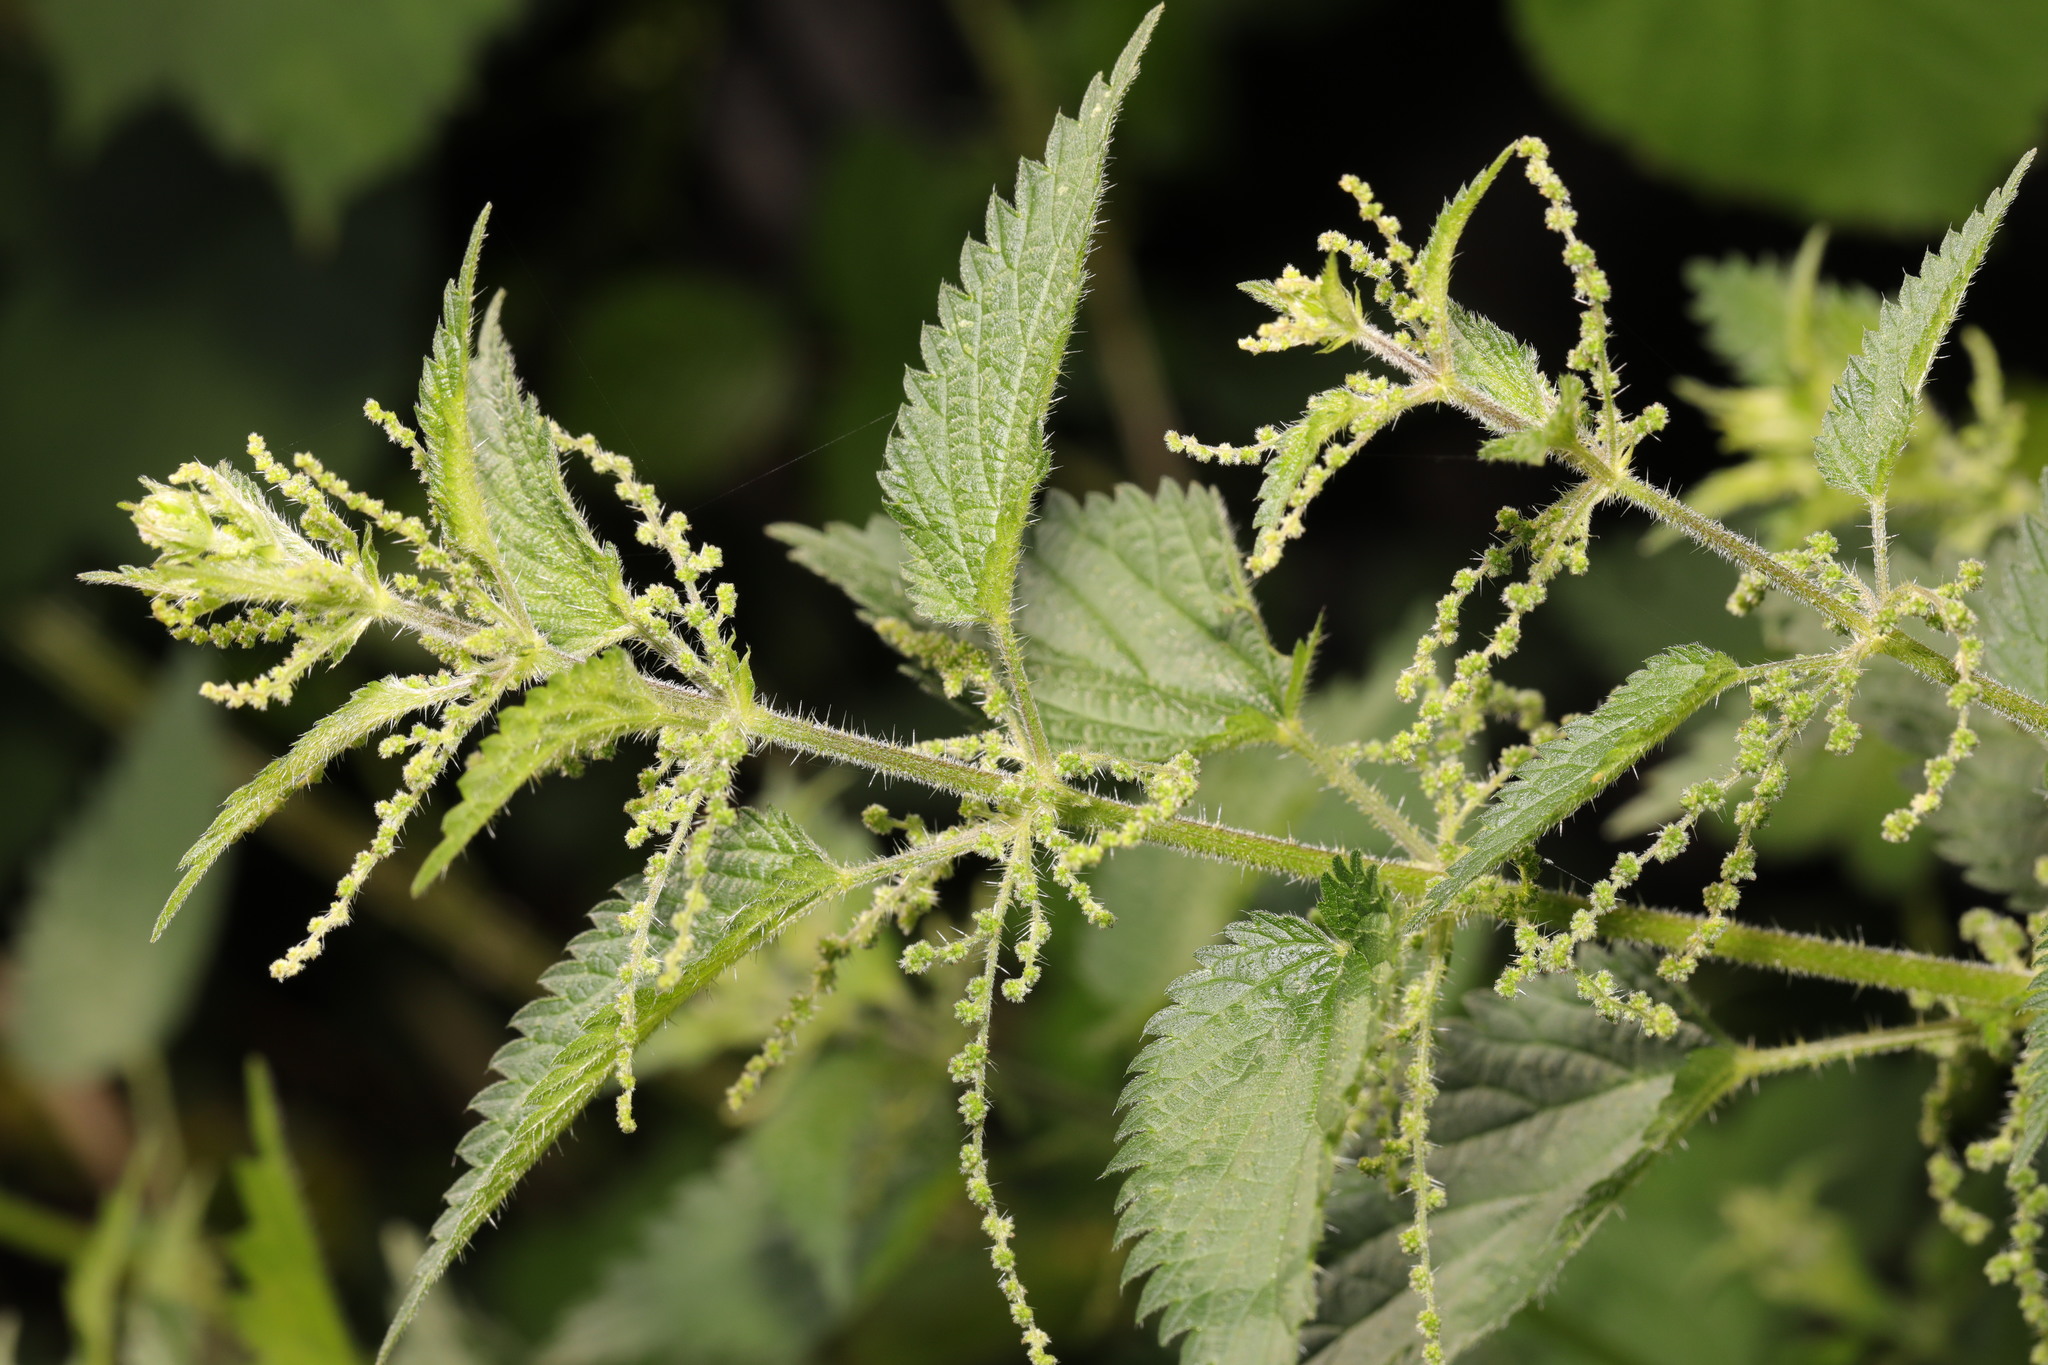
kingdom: Plantae
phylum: Tracheophyta
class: Magnoliopsida
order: Rosales
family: Urticaceae
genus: Urtica
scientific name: Urtica dioica
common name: Common nettle
